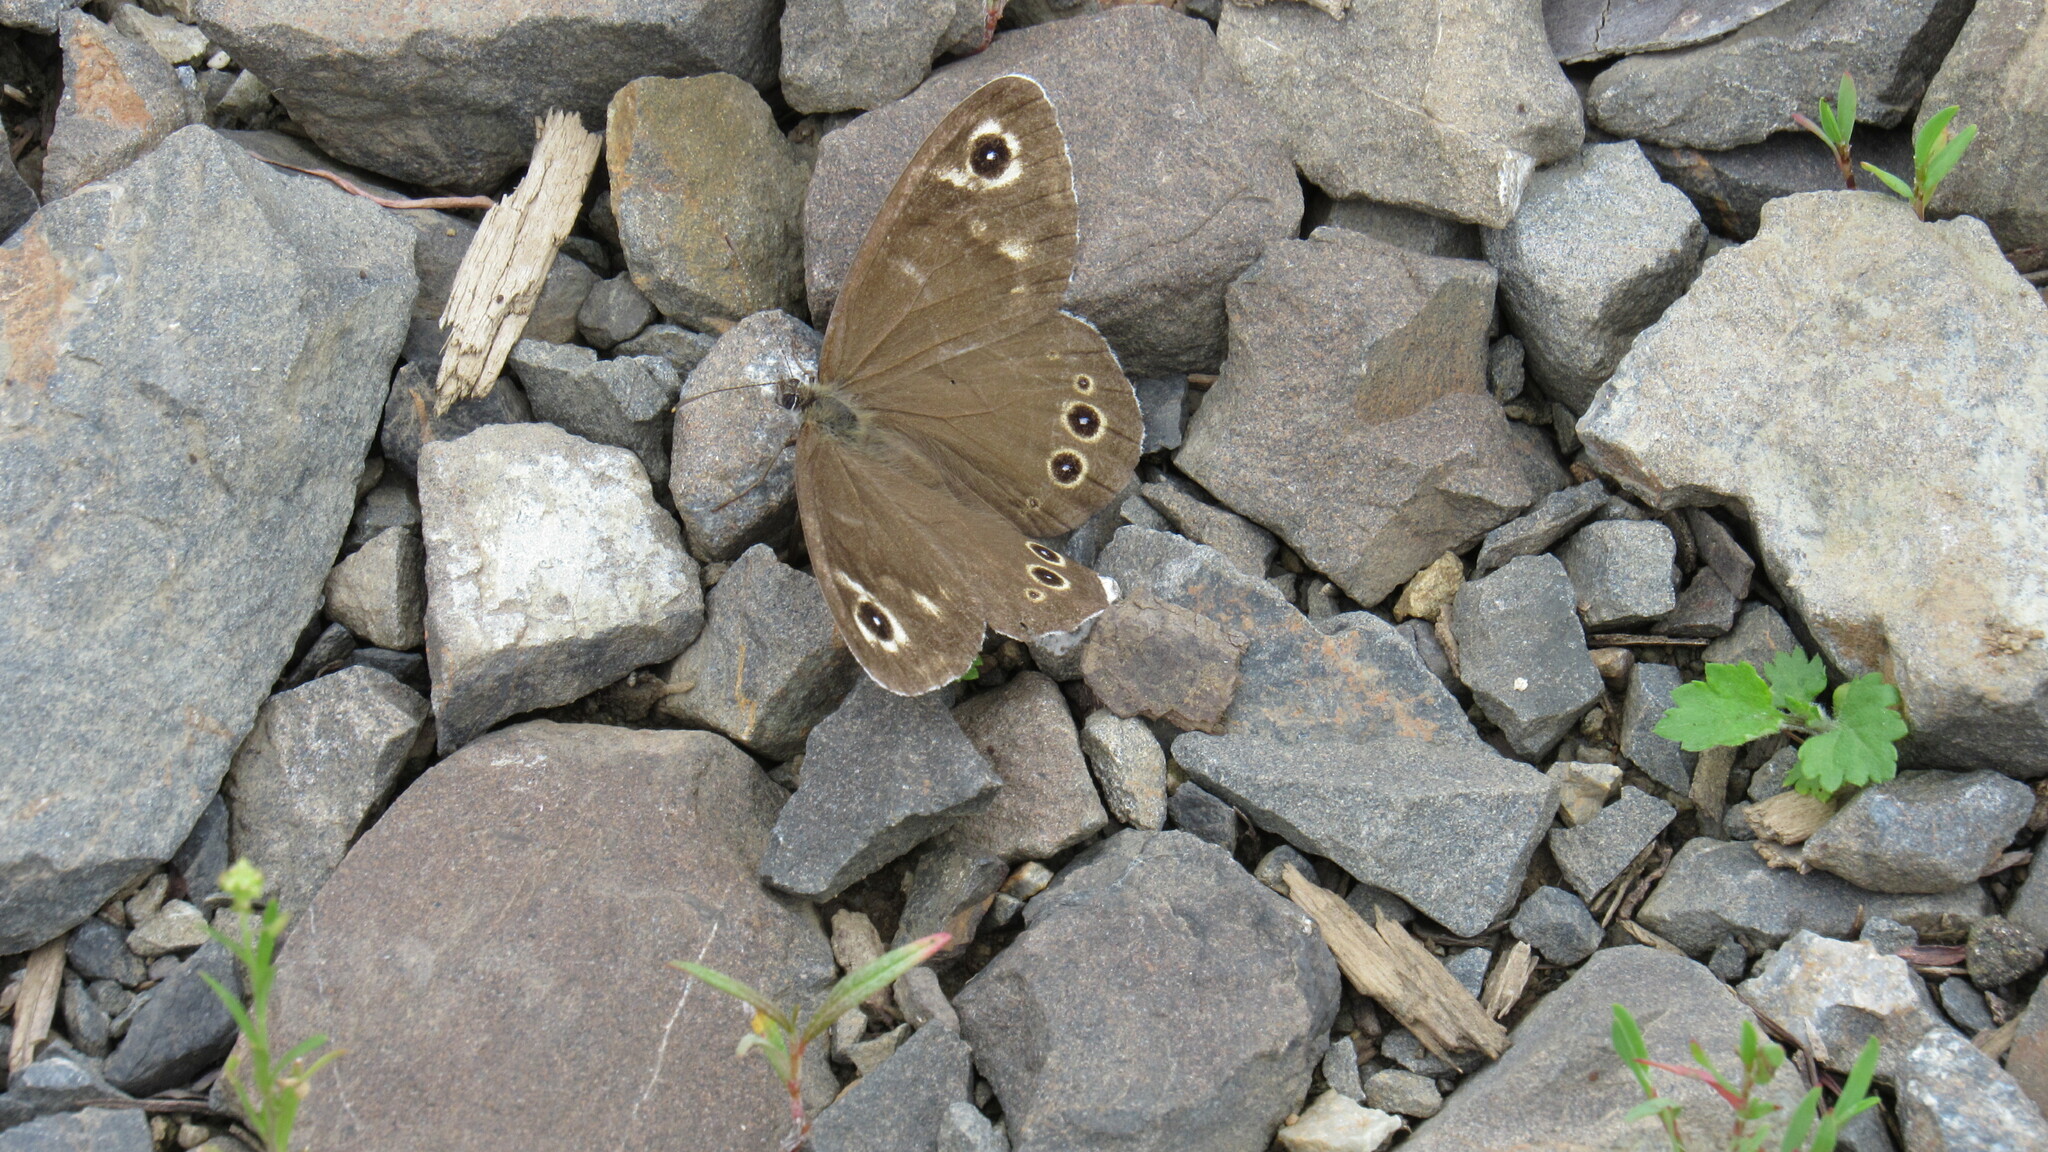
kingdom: Animalia
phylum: Arthropoda
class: Insecta
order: Lepidoptera
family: Nymphalidae
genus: Pararge
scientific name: Pararge Lasiommata deidamia
